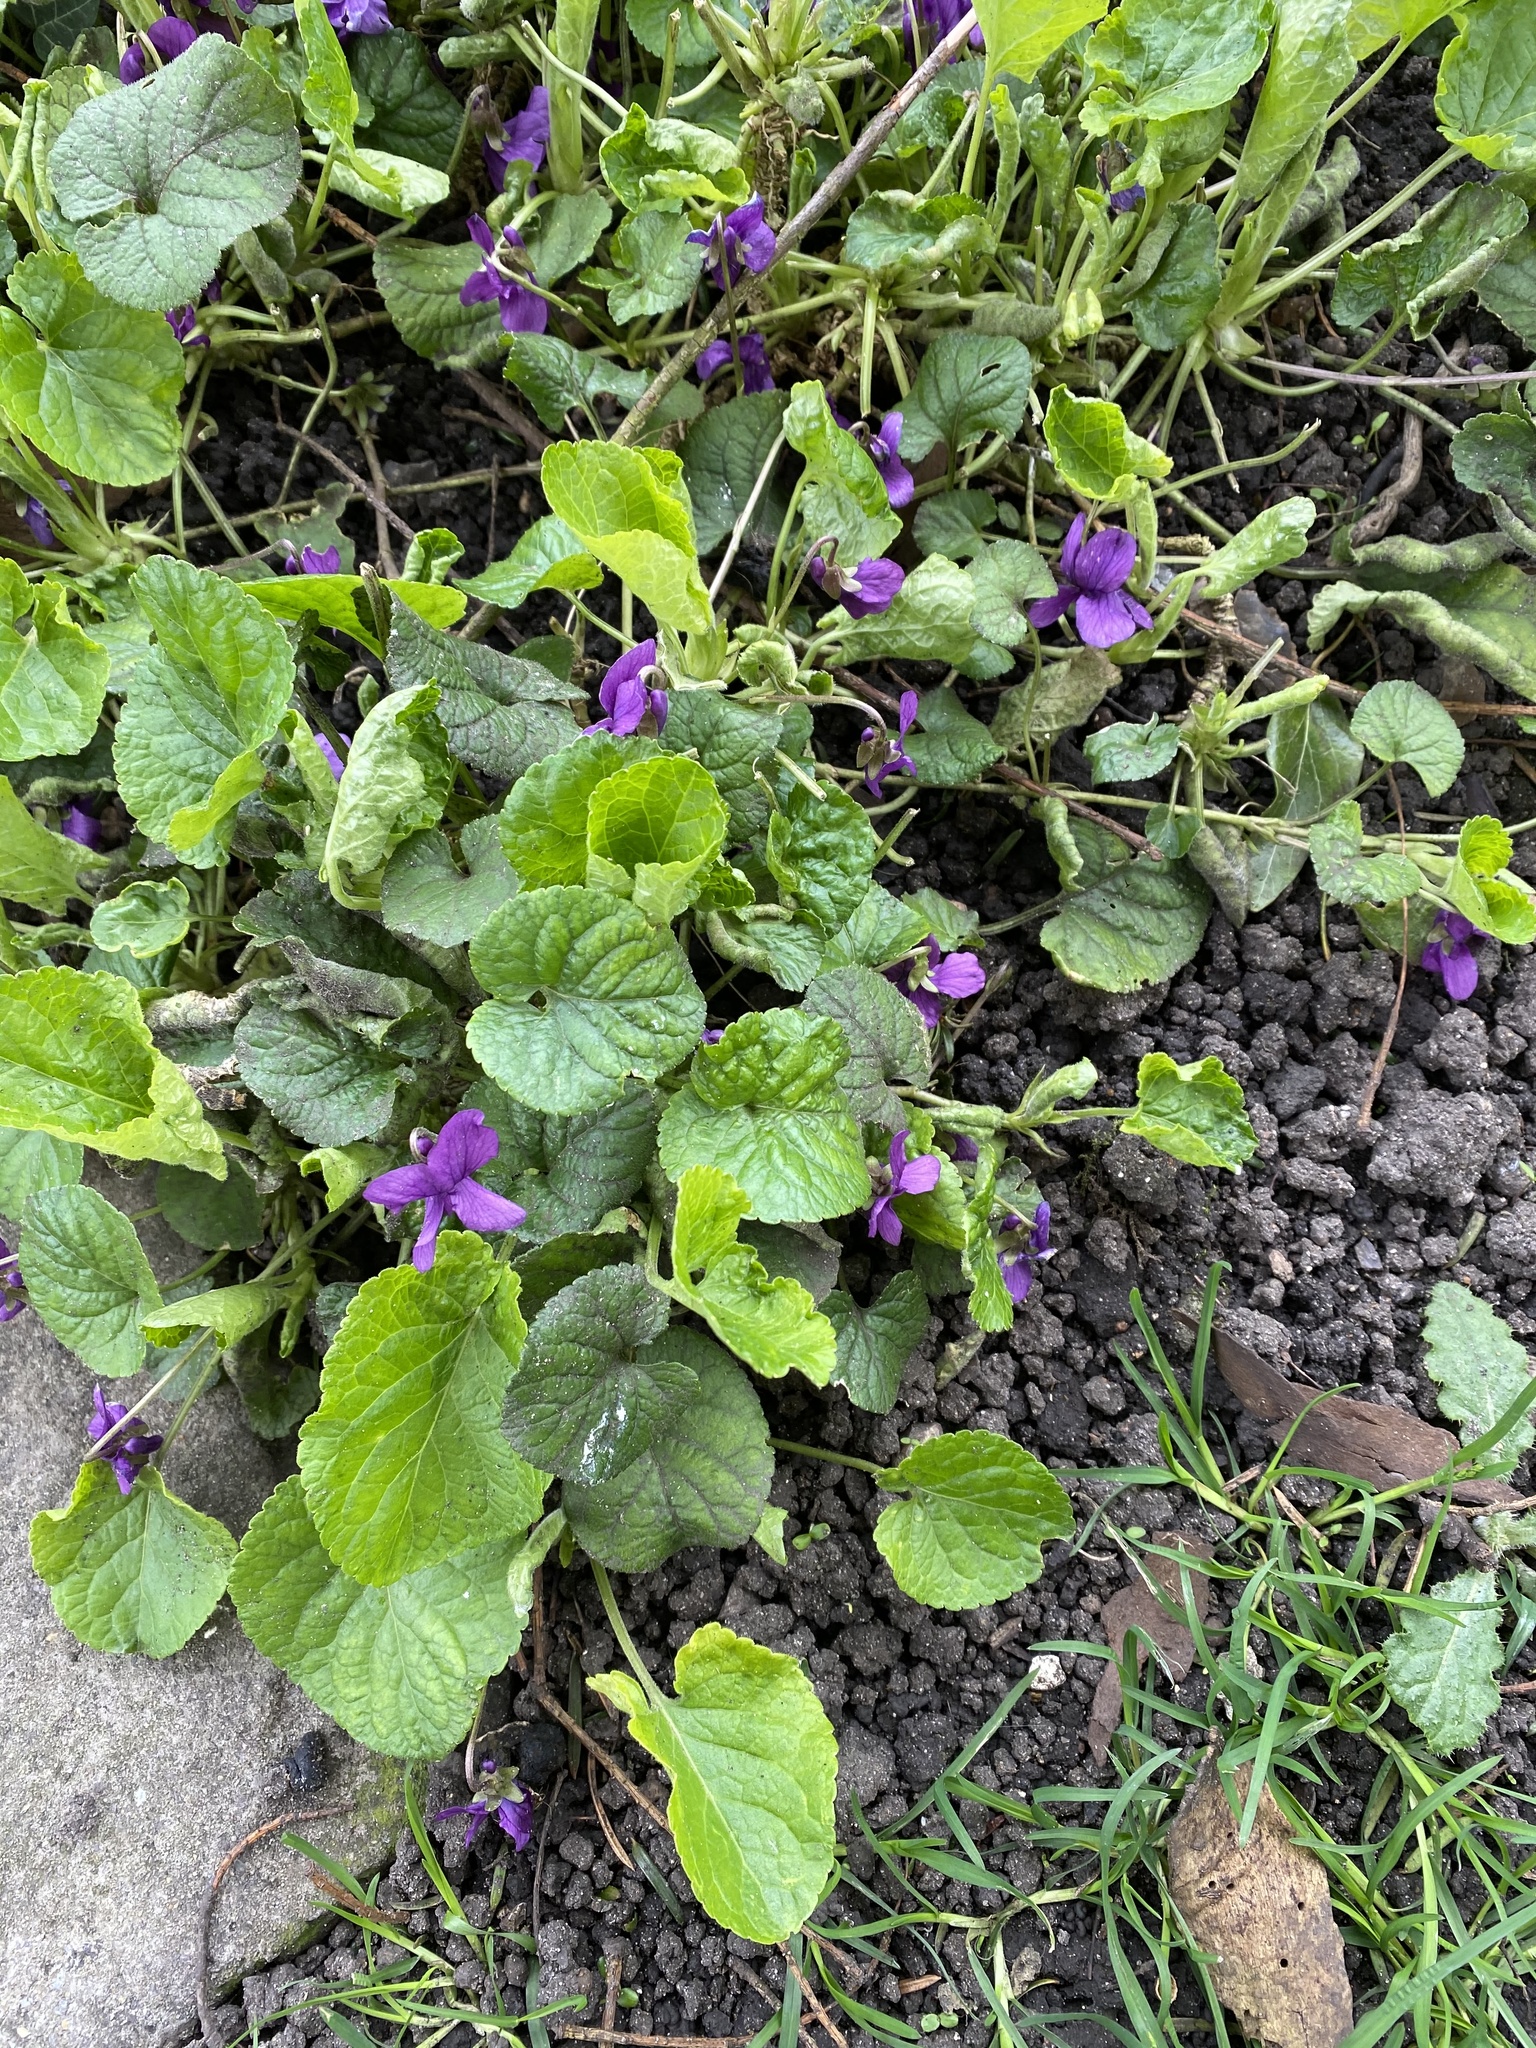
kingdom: Plantae
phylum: Tracheophyta
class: Magnoliopsida
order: Malpighiales
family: Violaceae
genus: Viola
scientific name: Viola odorata
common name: Sweet violet
